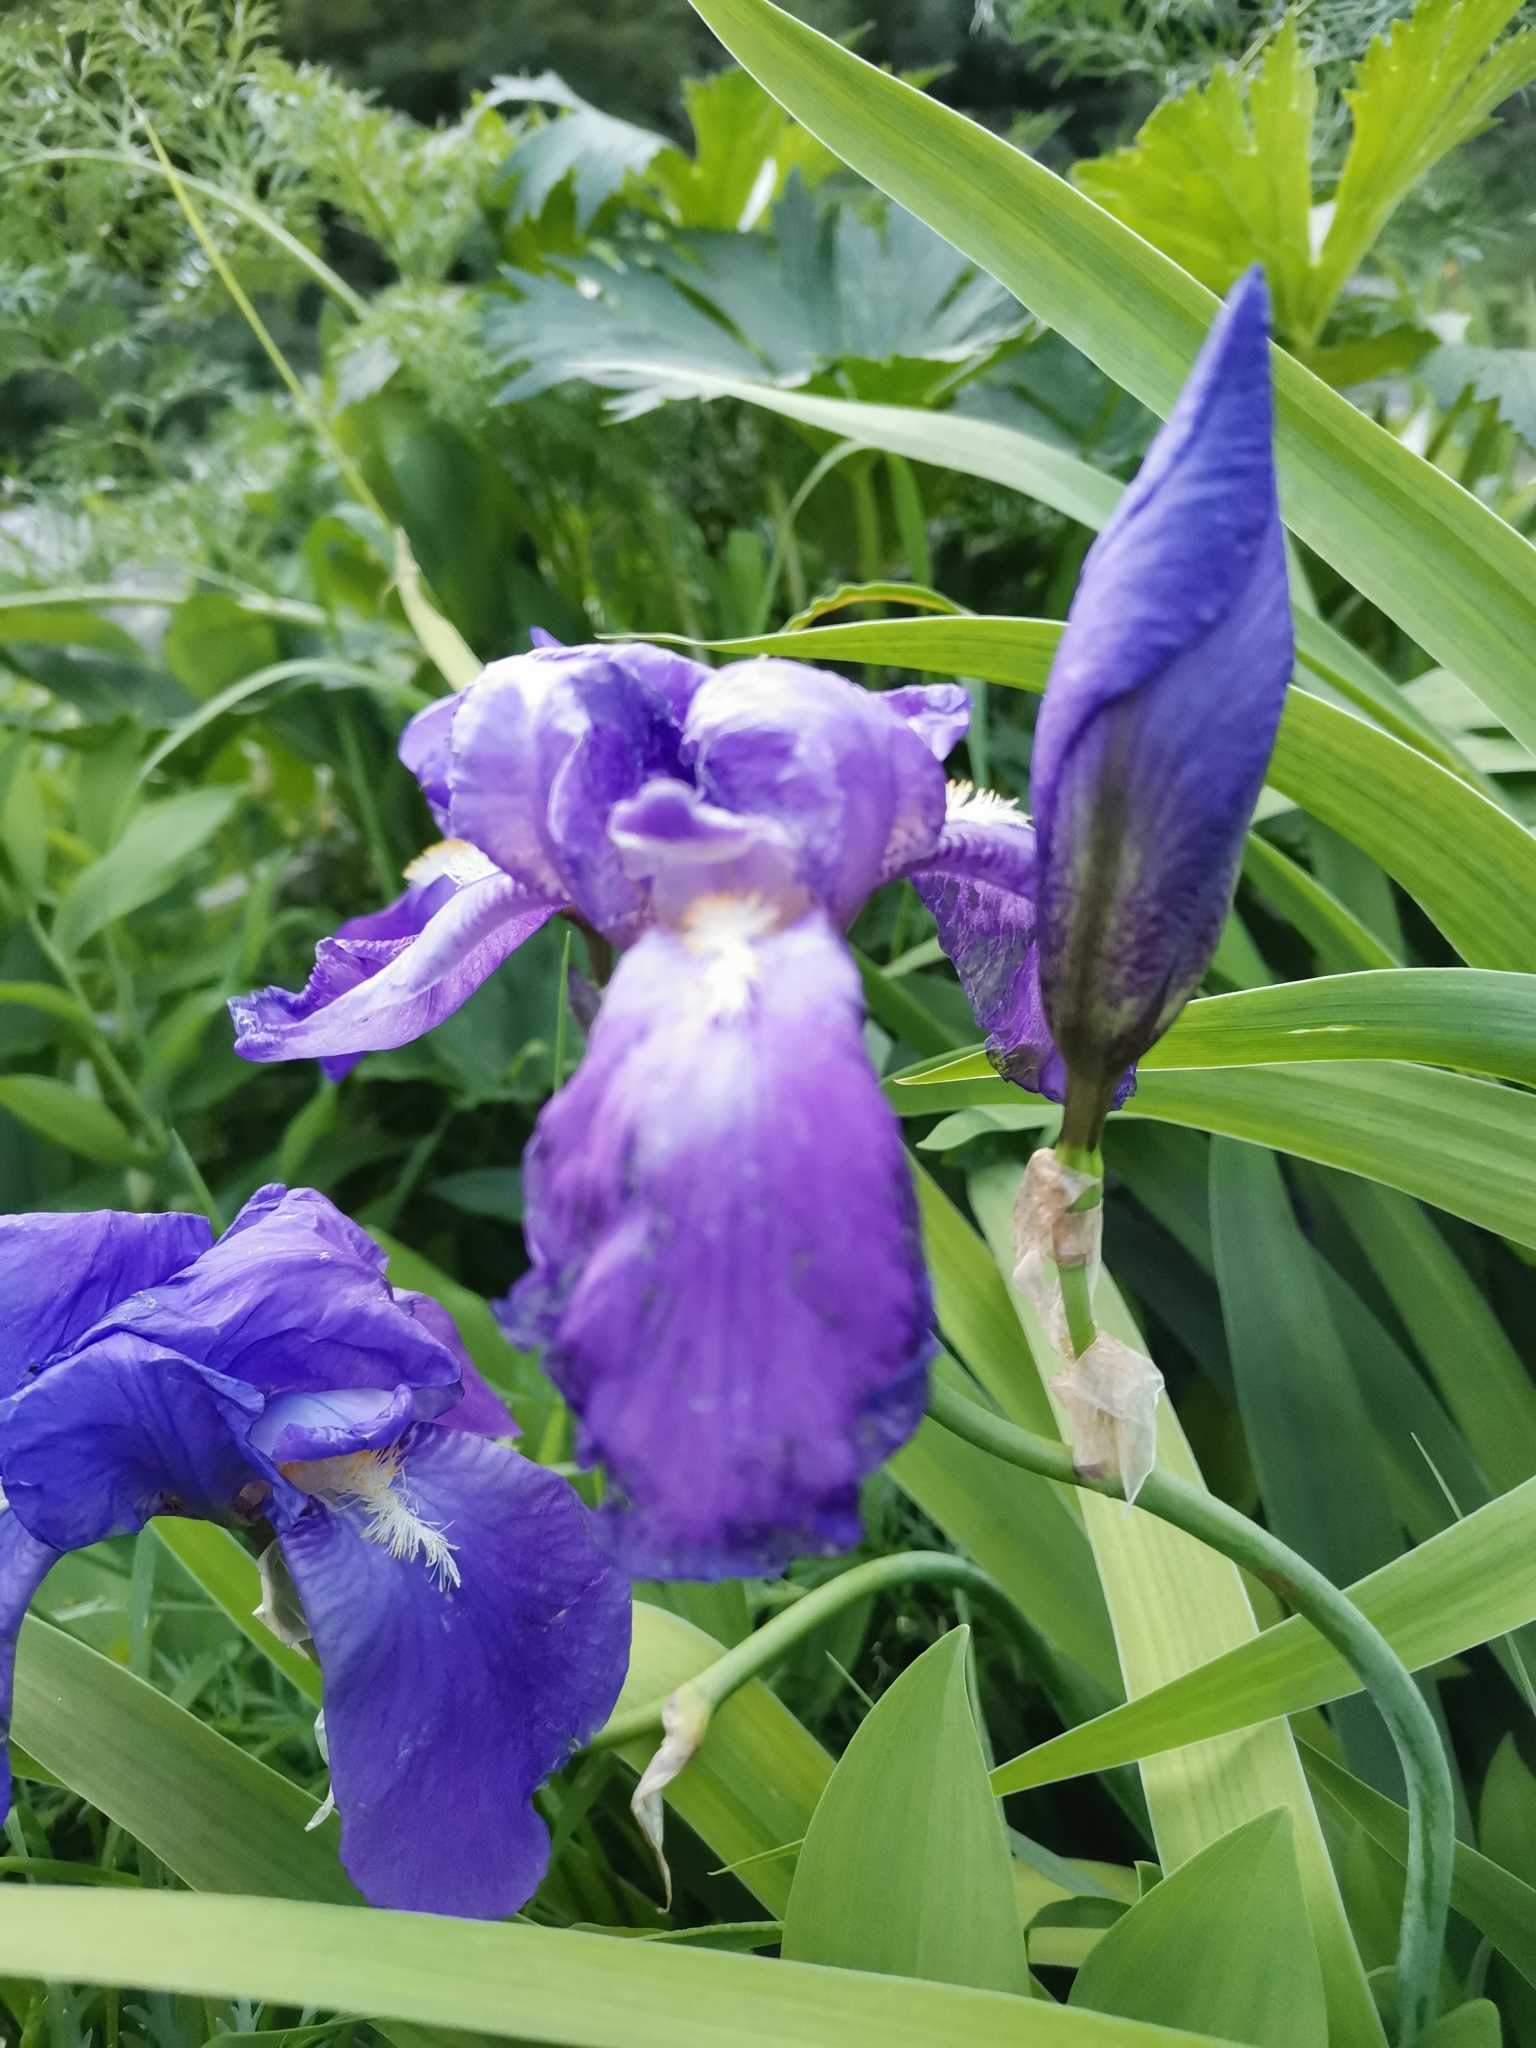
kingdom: Plantae
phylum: Tracheophyta
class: Liliopsida
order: Asparagales
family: Iridaceae
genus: Iris
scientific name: Iris pallida
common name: Sweet iris
